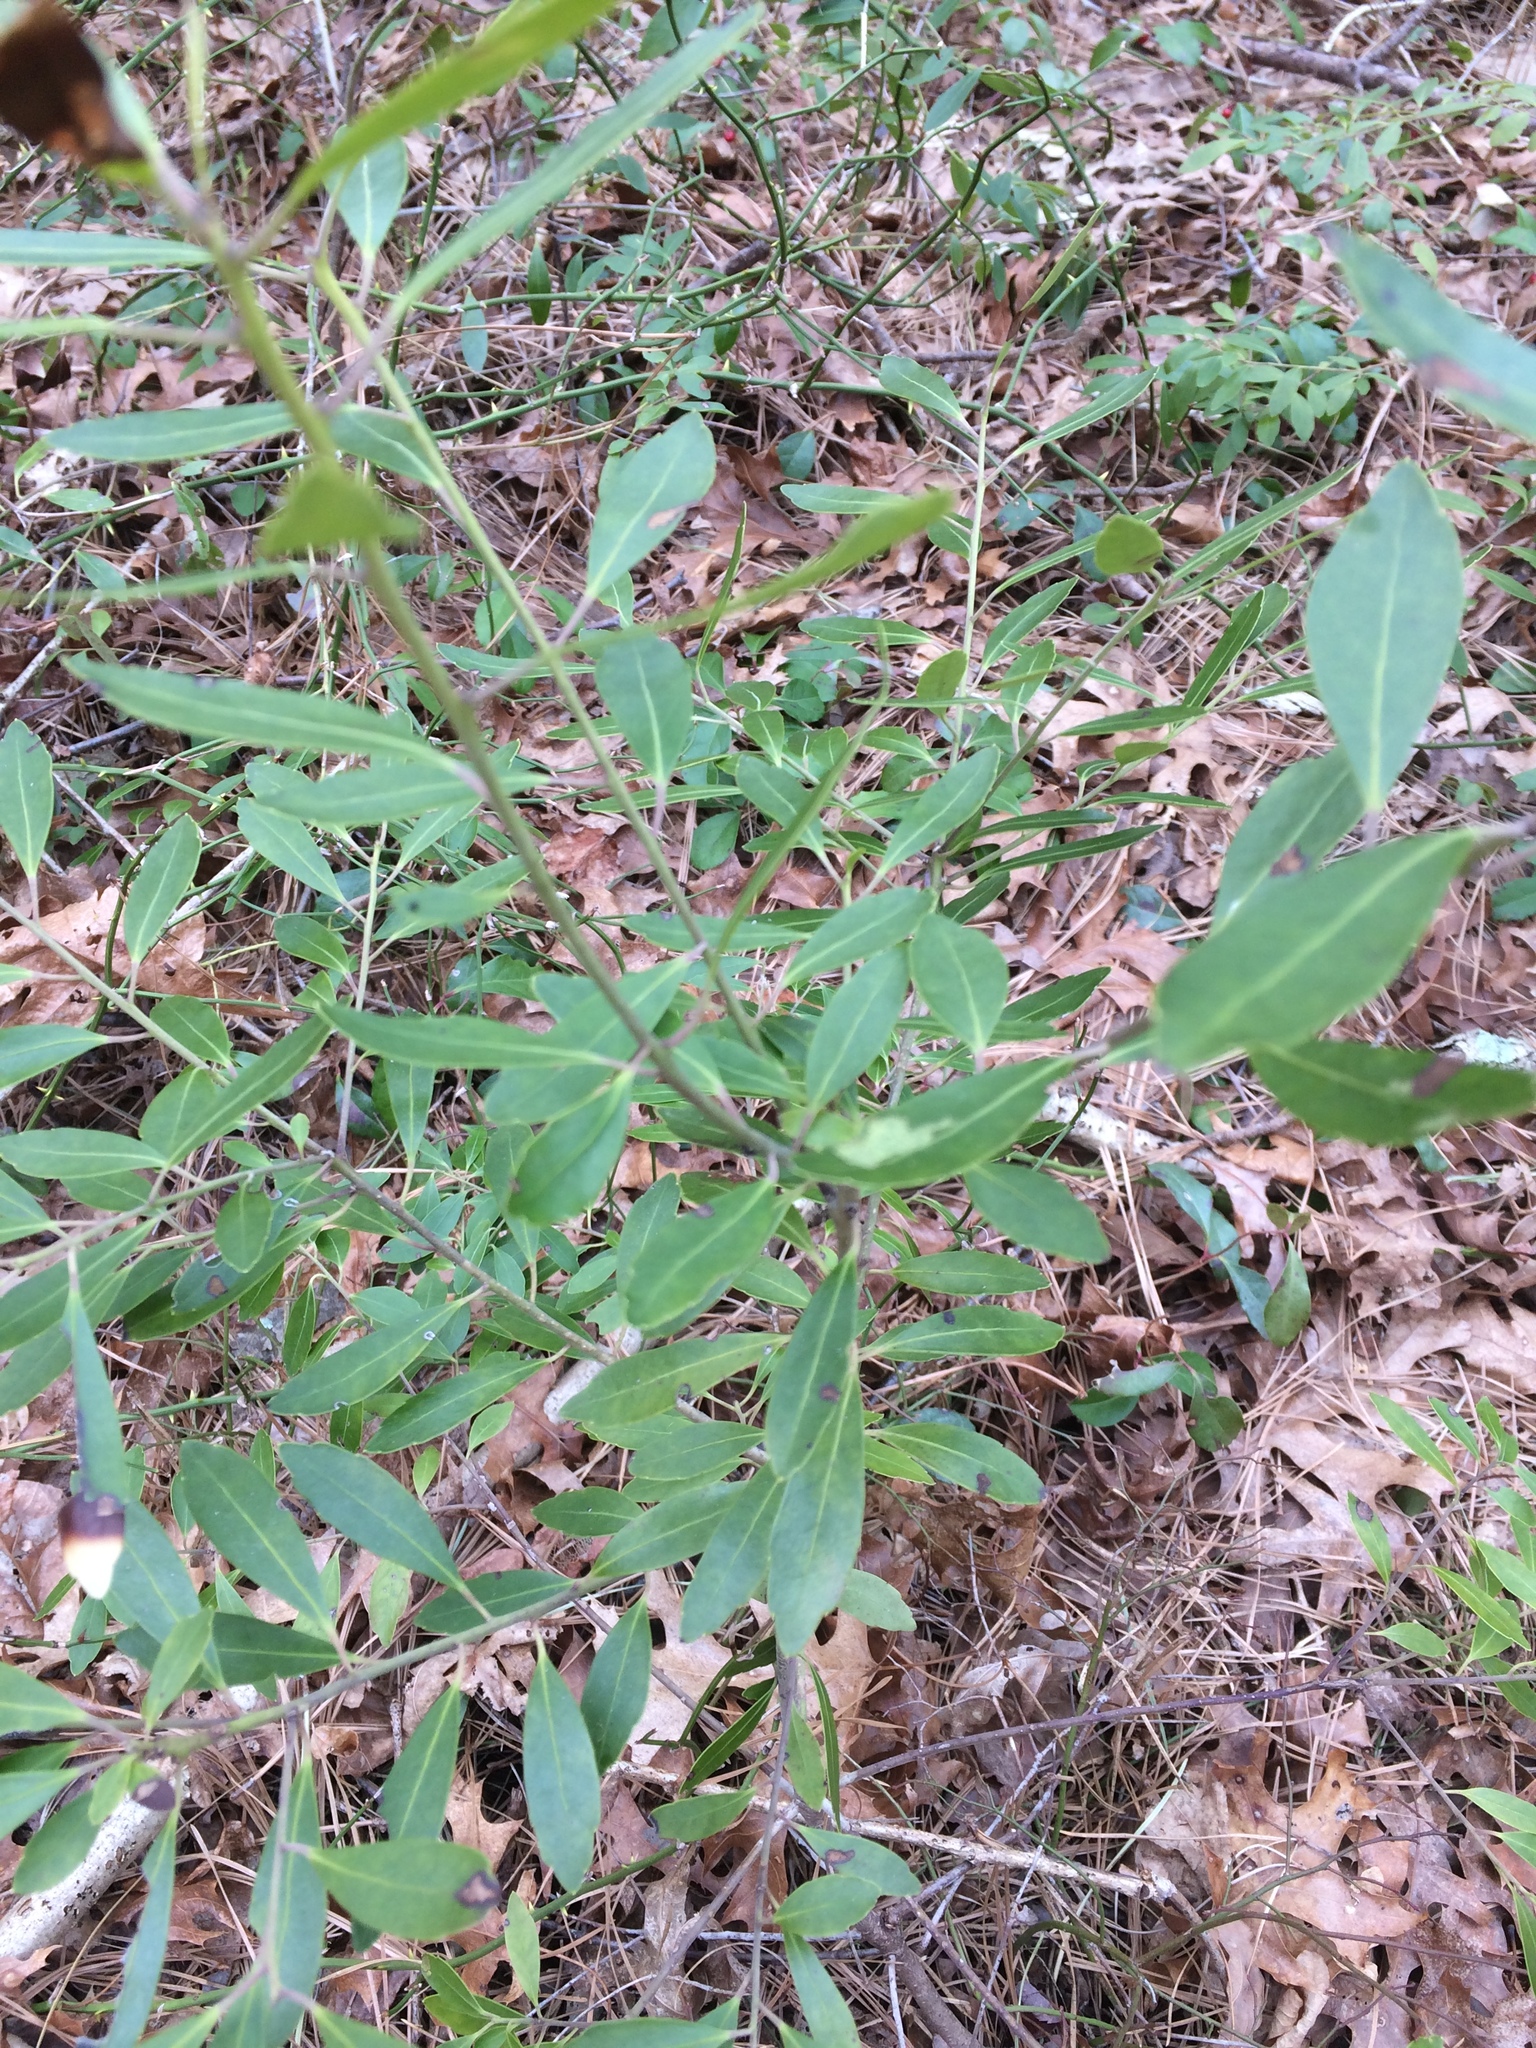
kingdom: Plantae
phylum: Tracheophyta
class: Magnoliopsida
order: Aquifoliales
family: Aquifoliaceae
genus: Ilex
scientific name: Ilex glabra
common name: Bitter gallberry
